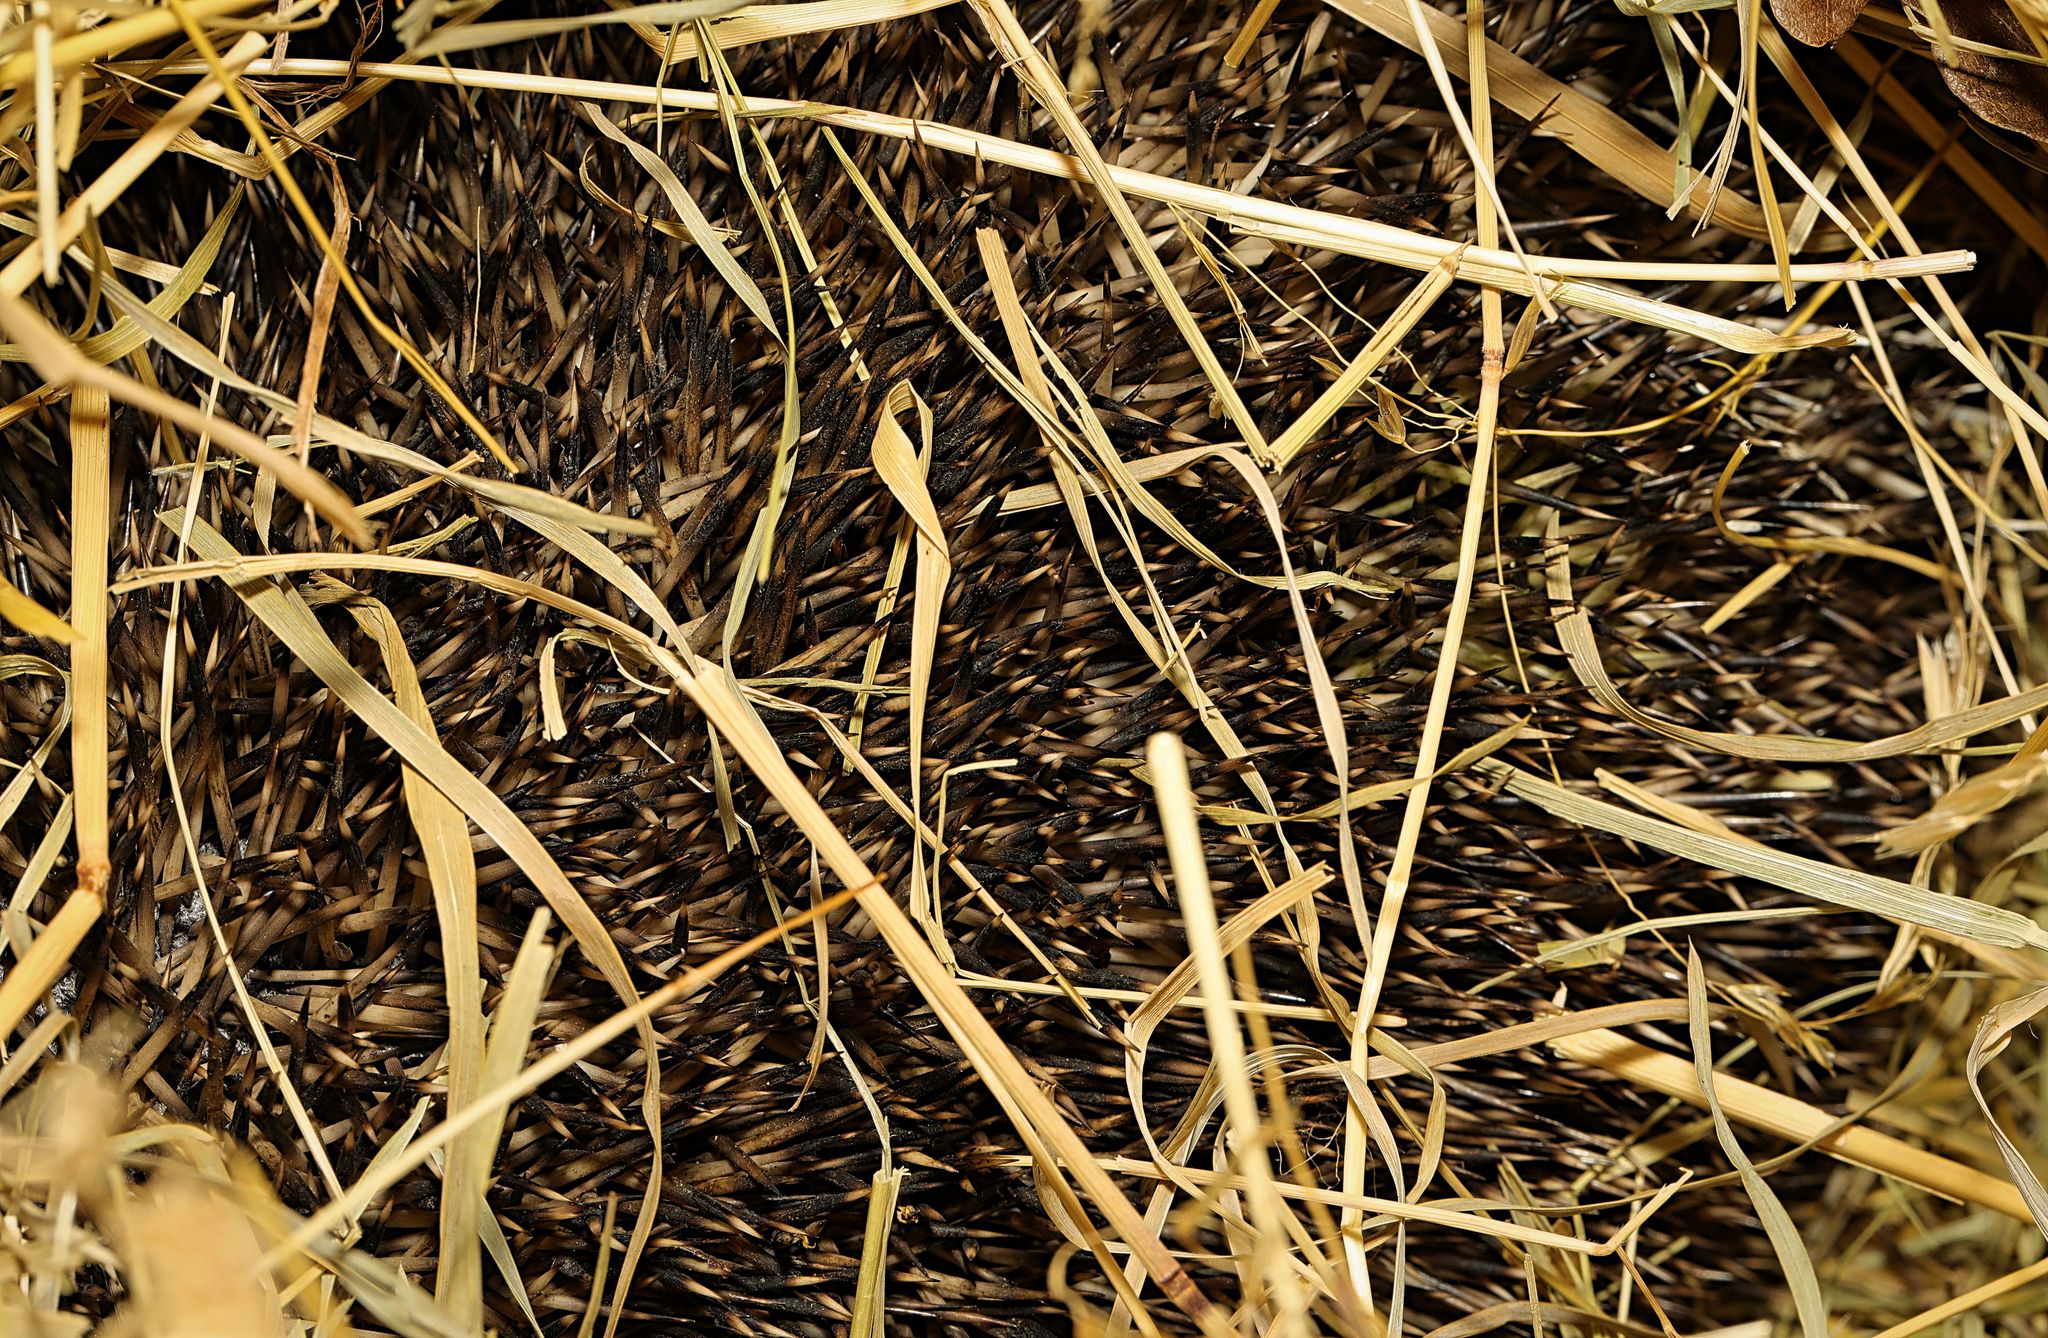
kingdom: Animalia
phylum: Chordata
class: Mammalia
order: Erinaceomorpha
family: Erinaceidae
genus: Erinaceus
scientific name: Erinaceus europaeus
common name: West european hedgehog
